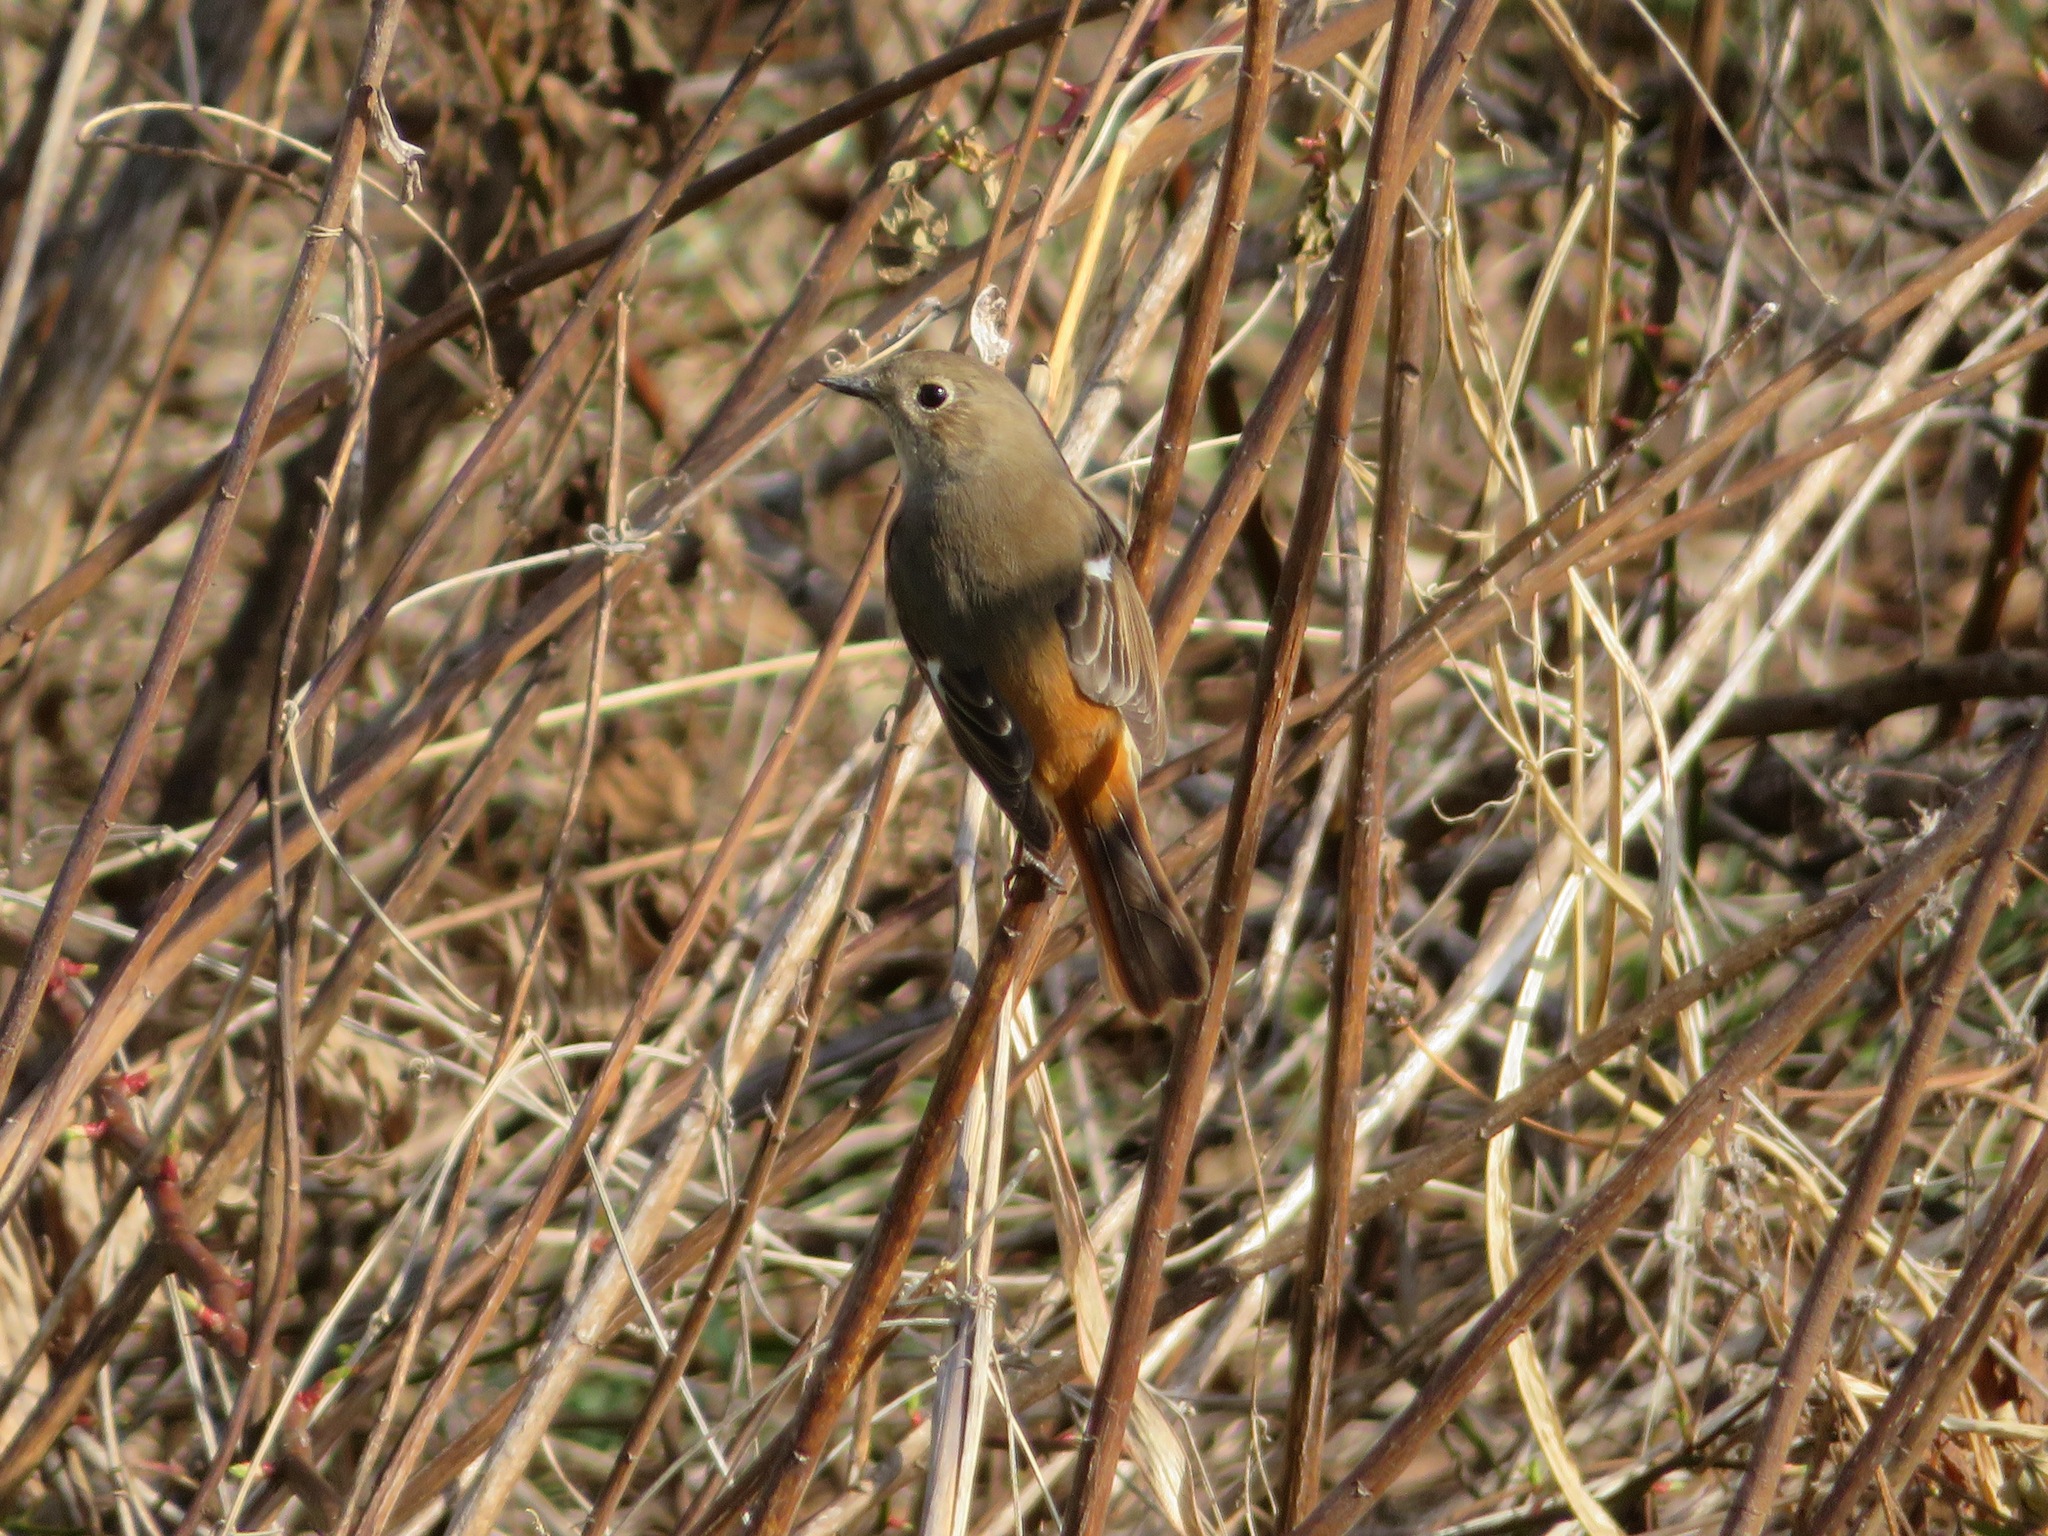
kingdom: Animalia
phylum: Chordata
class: Aves
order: Passeriformes
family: Muscicapidae
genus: Phoenicurus
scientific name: Phoenicurus auroreus
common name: Daurian redstart
